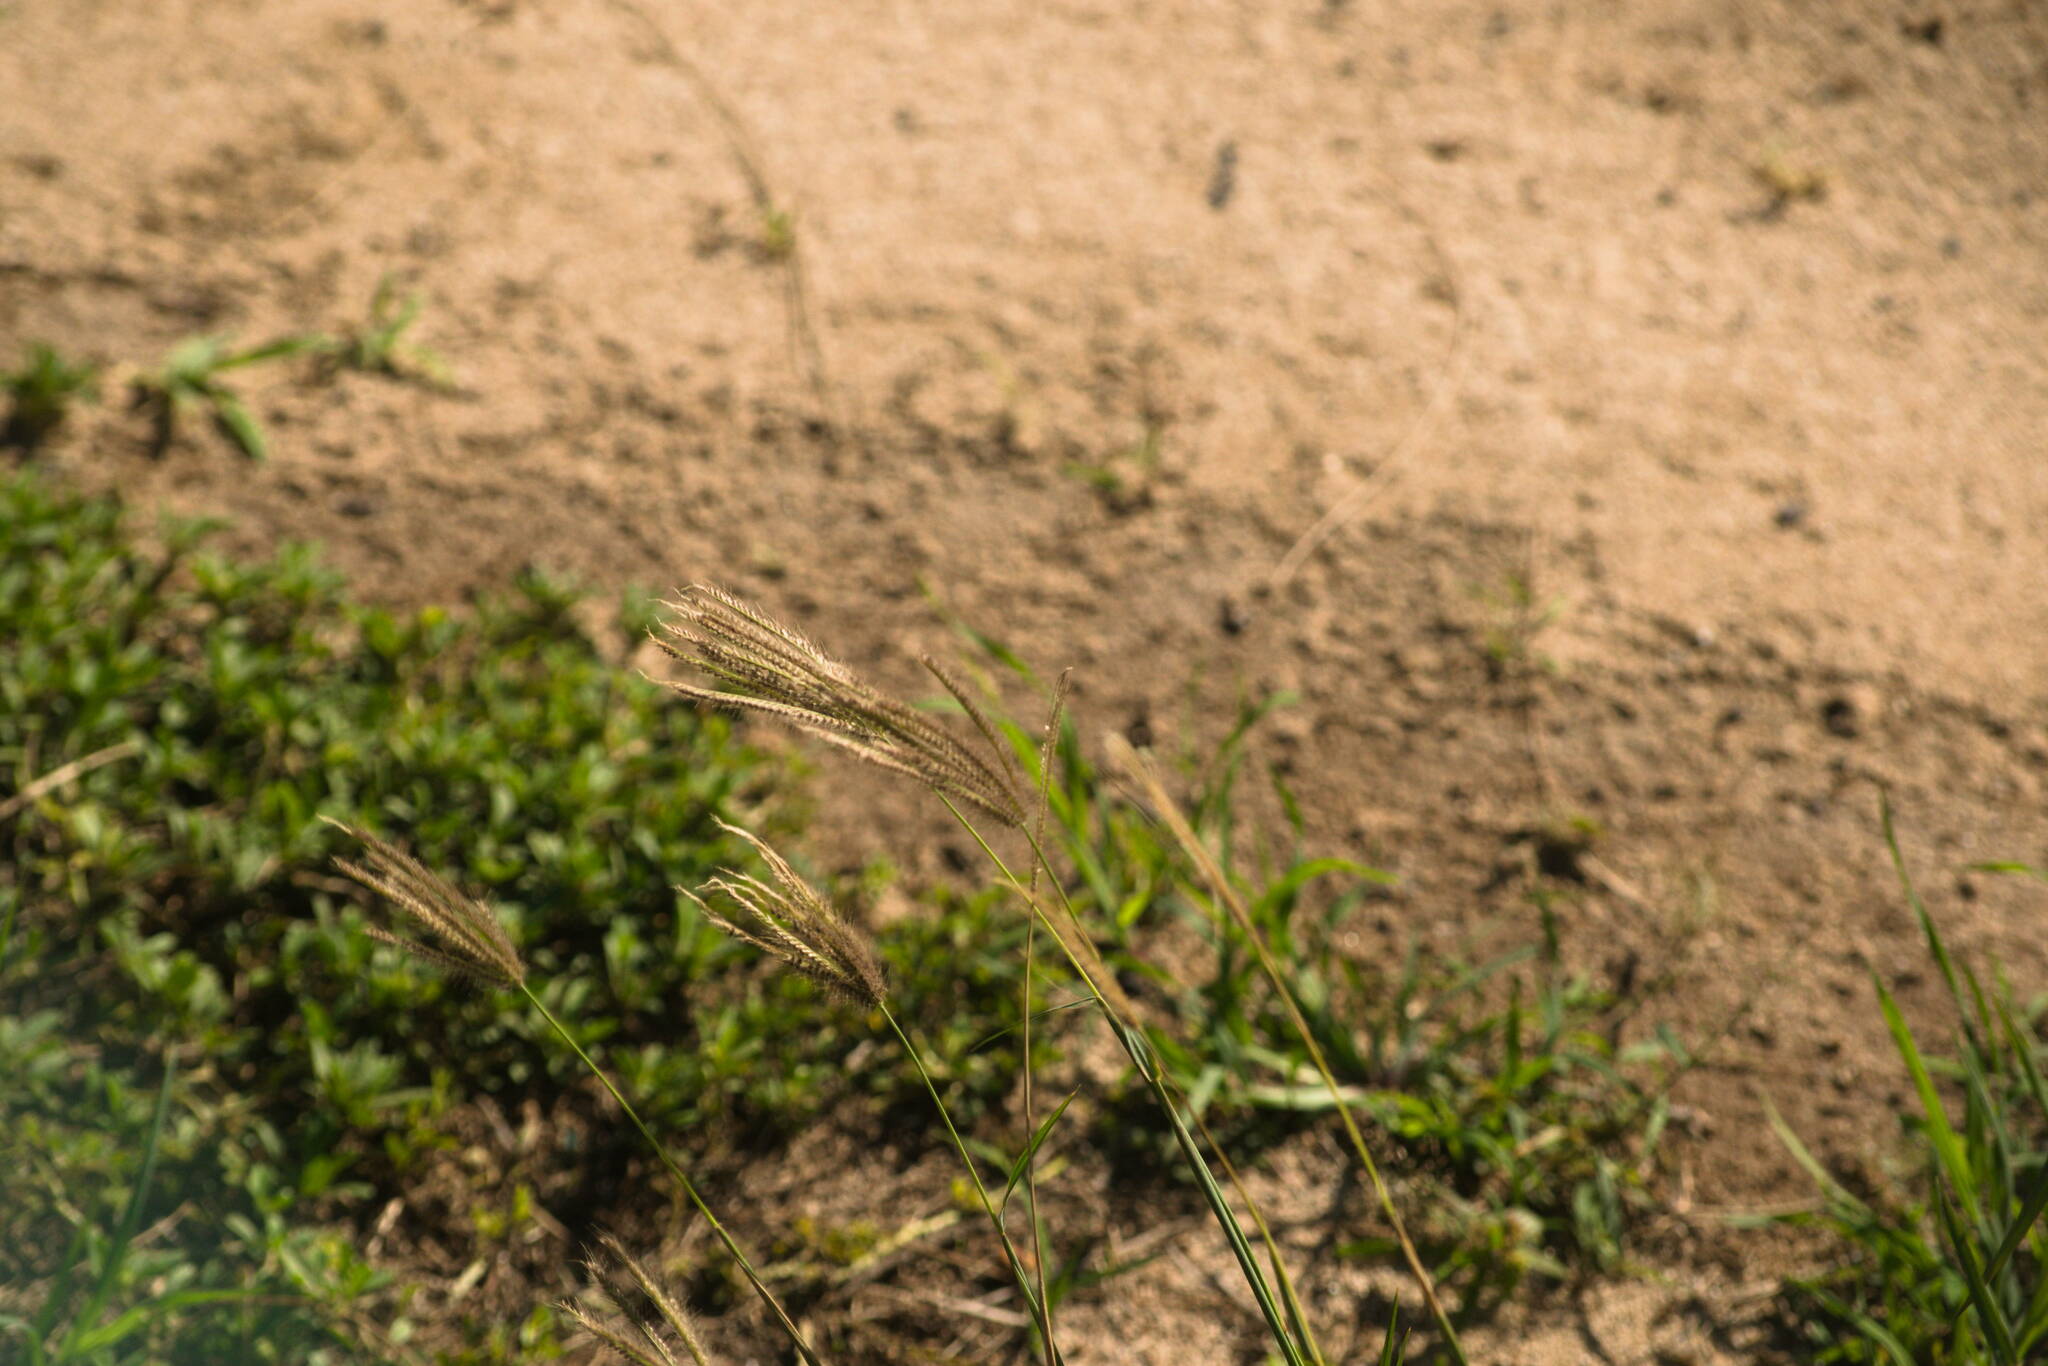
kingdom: Plantae
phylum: Tracheophyta
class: Liliopsida
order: Poales
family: Poaceae
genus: Chloris
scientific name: Chloris barbata
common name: Swollen fingergrass
